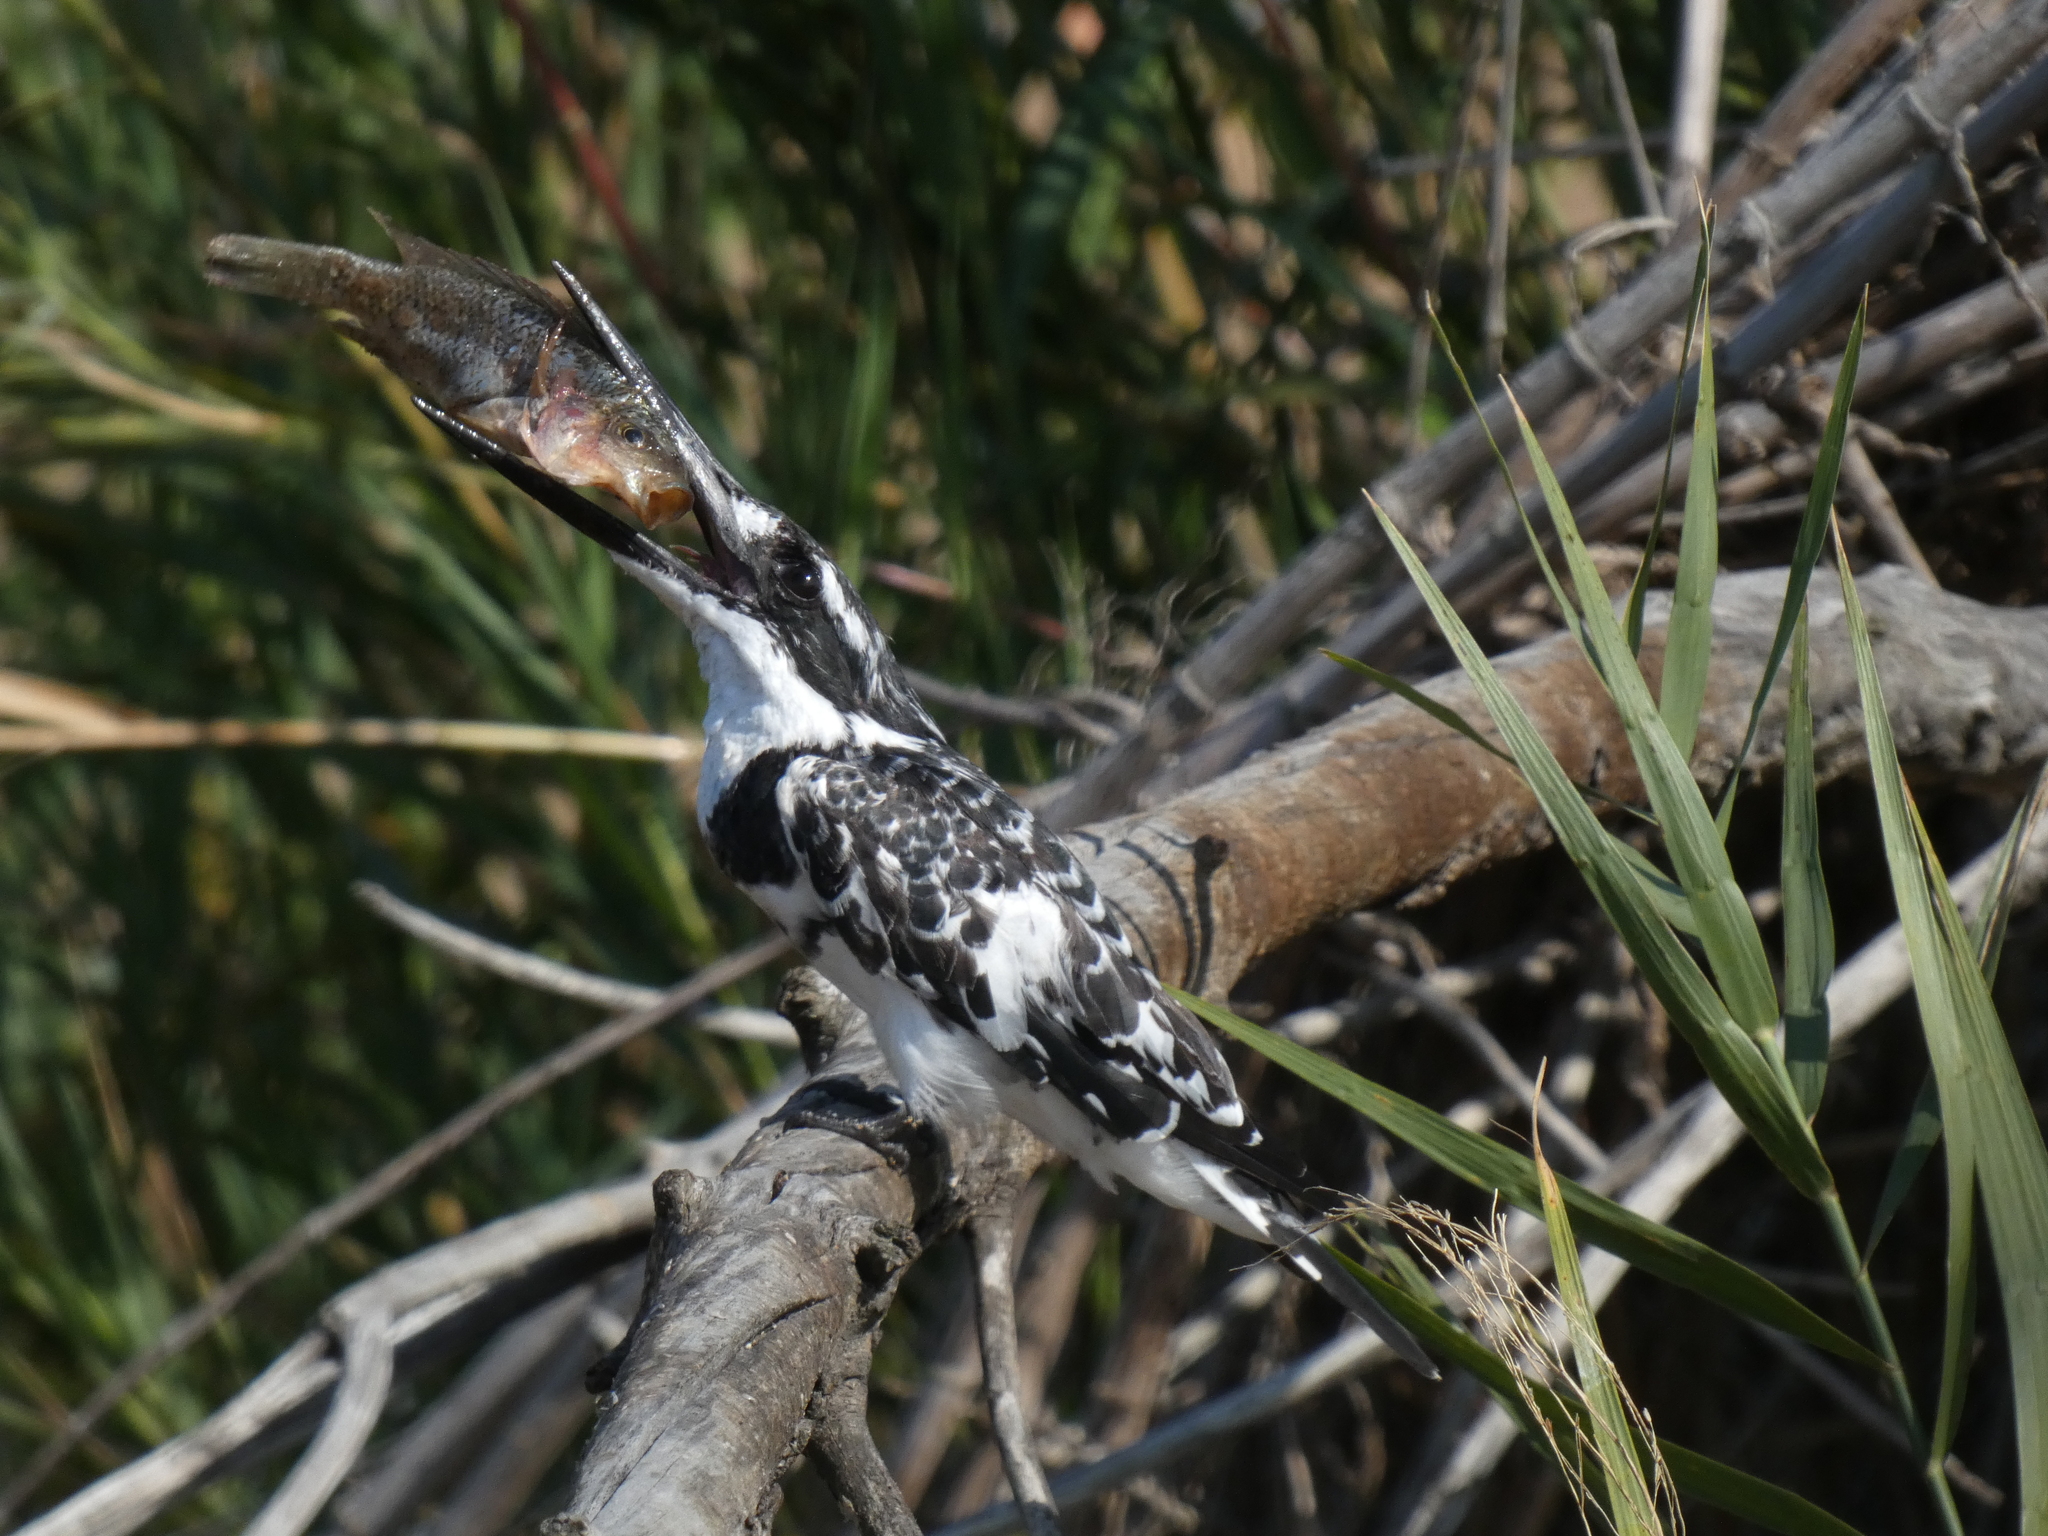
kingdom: Animalia
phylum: Chordata
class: Aves
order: Coraciiformes
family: Alcedinidae
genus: Ceryle
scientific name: Ceryle rudis
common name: Pied kingfisher
